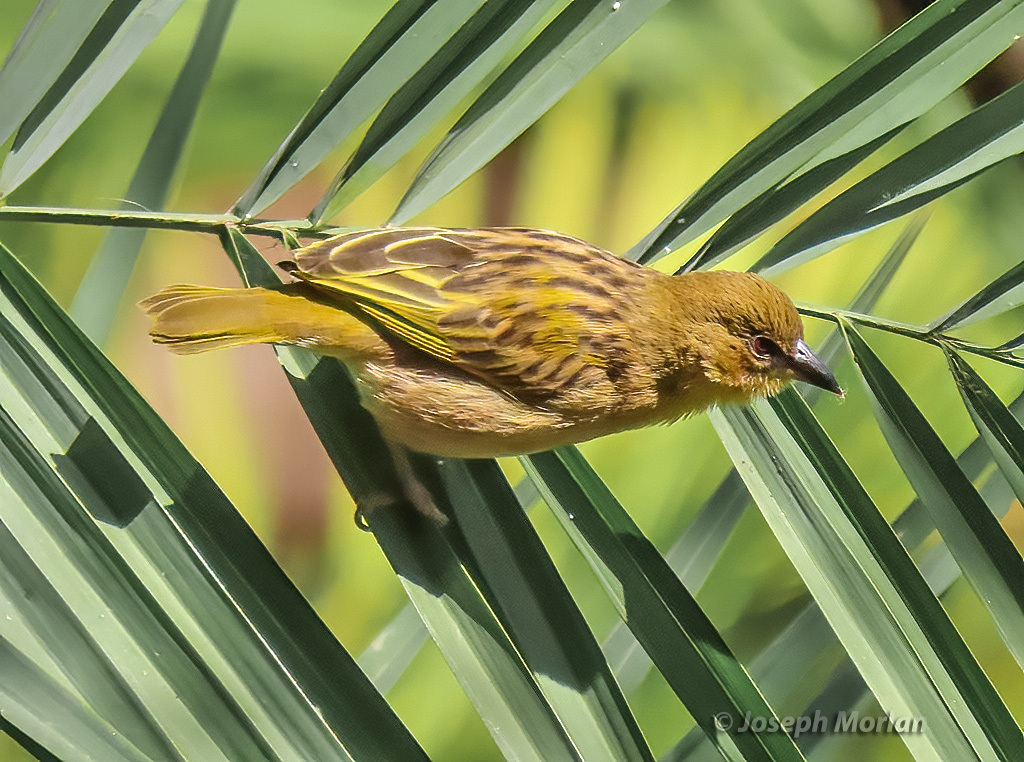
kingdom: Animalia
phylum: Chordata
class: Aves
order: Passeriformes
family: Ploceidae
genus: Ploceus
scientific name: Ploceus xanthops
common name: Holub's golden weaver
